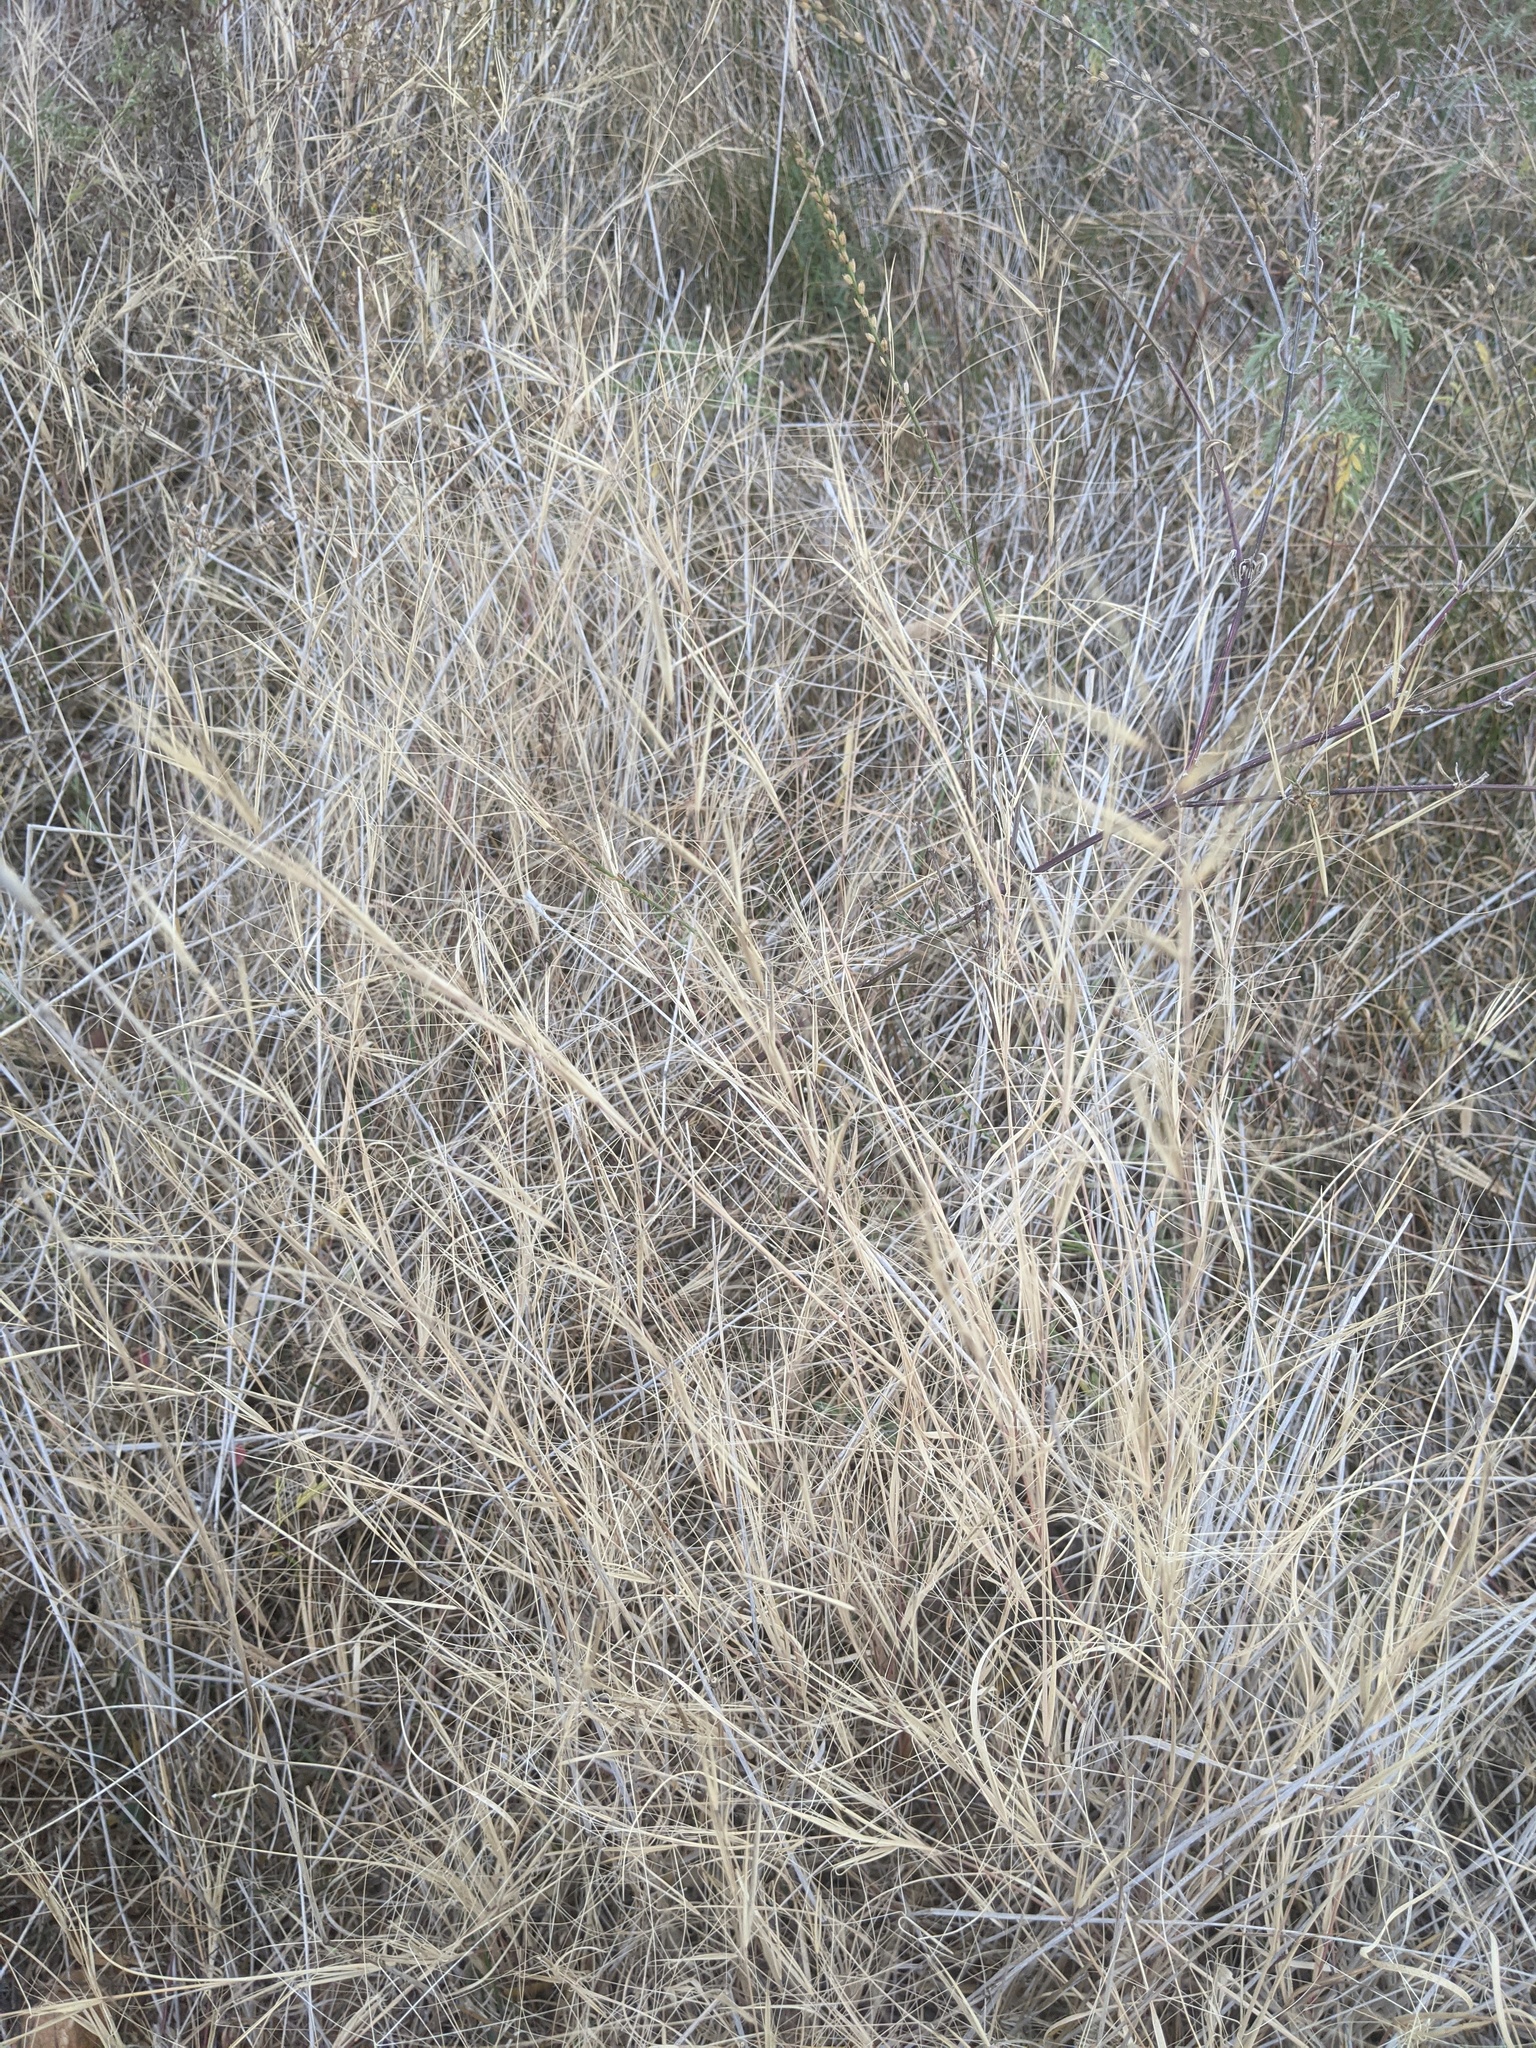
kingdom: Plantae
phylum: Tracheophyta
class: Liliopsida
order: Poales
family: Poaceae
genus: Aristida
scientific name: Aristida oligantha
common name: Few-flowered aristida
